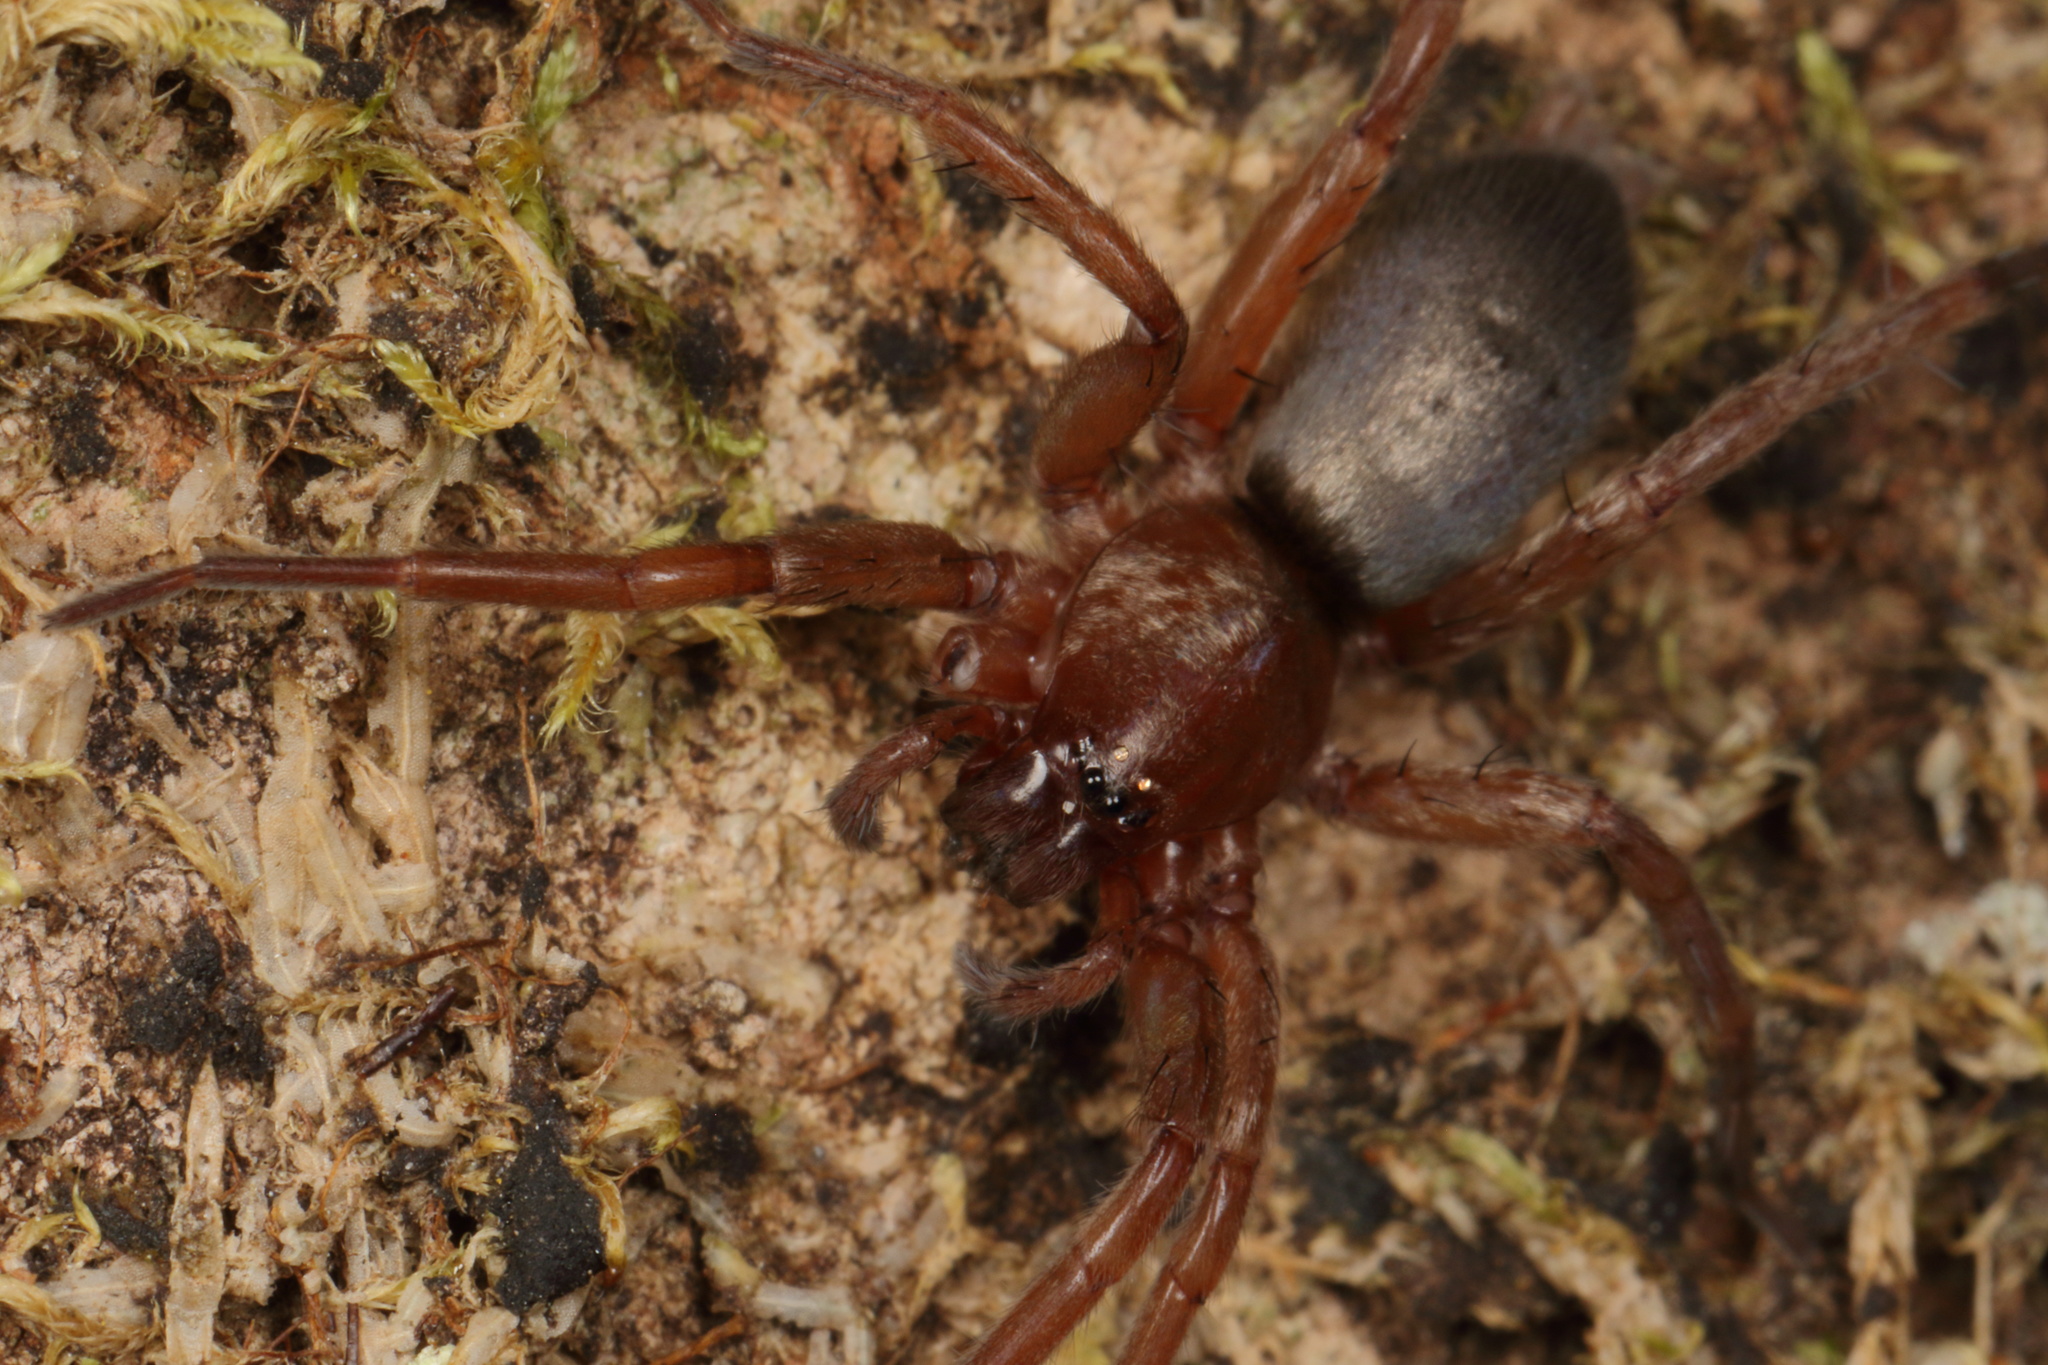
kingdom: Animalia
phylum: Arthropoda
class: Arachnida
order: Araneae
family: Gnaphosidae
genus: Hypodrassodes
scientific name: Hypodrassodes maoricus
